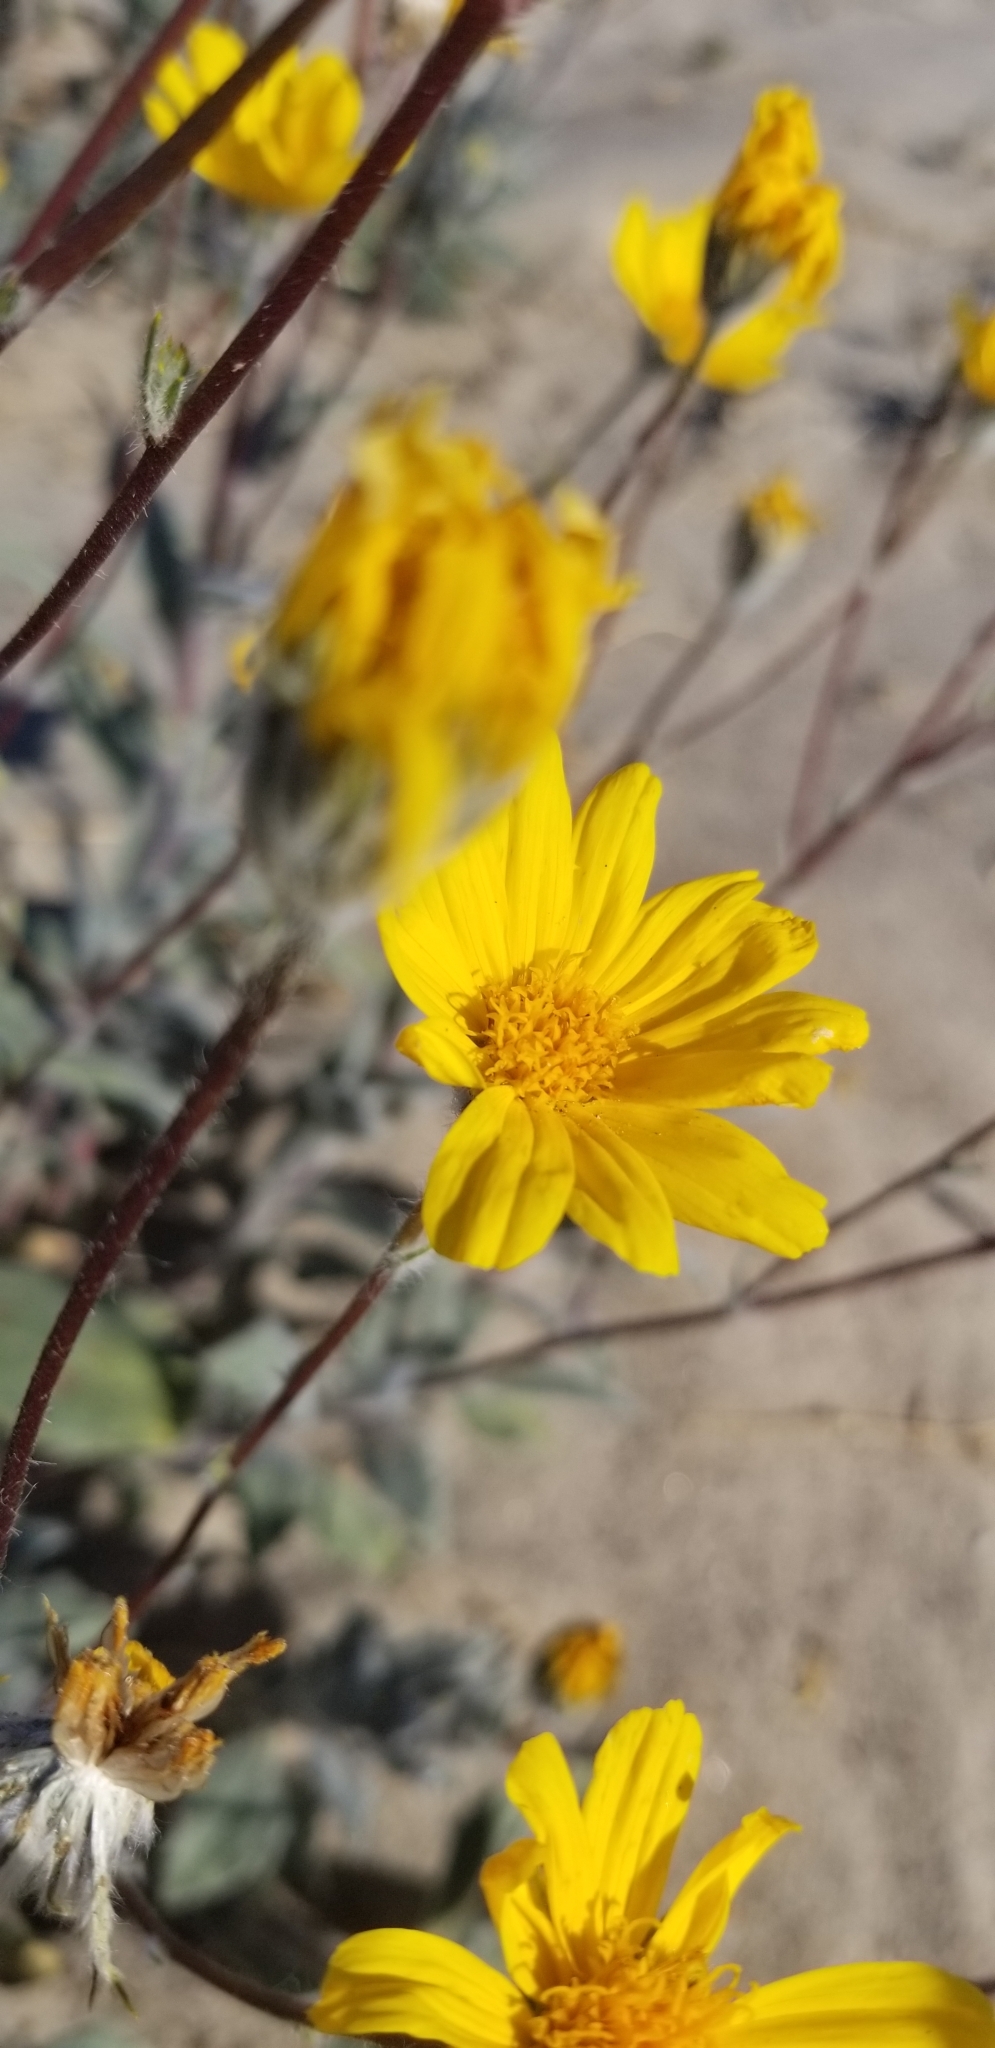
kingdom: Plantae
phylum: Tracheophyta
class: Magnoliopsida
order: Asterales
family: Asteraceae
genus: Geraea
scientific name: Geraea canescens
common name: Desert-gold
